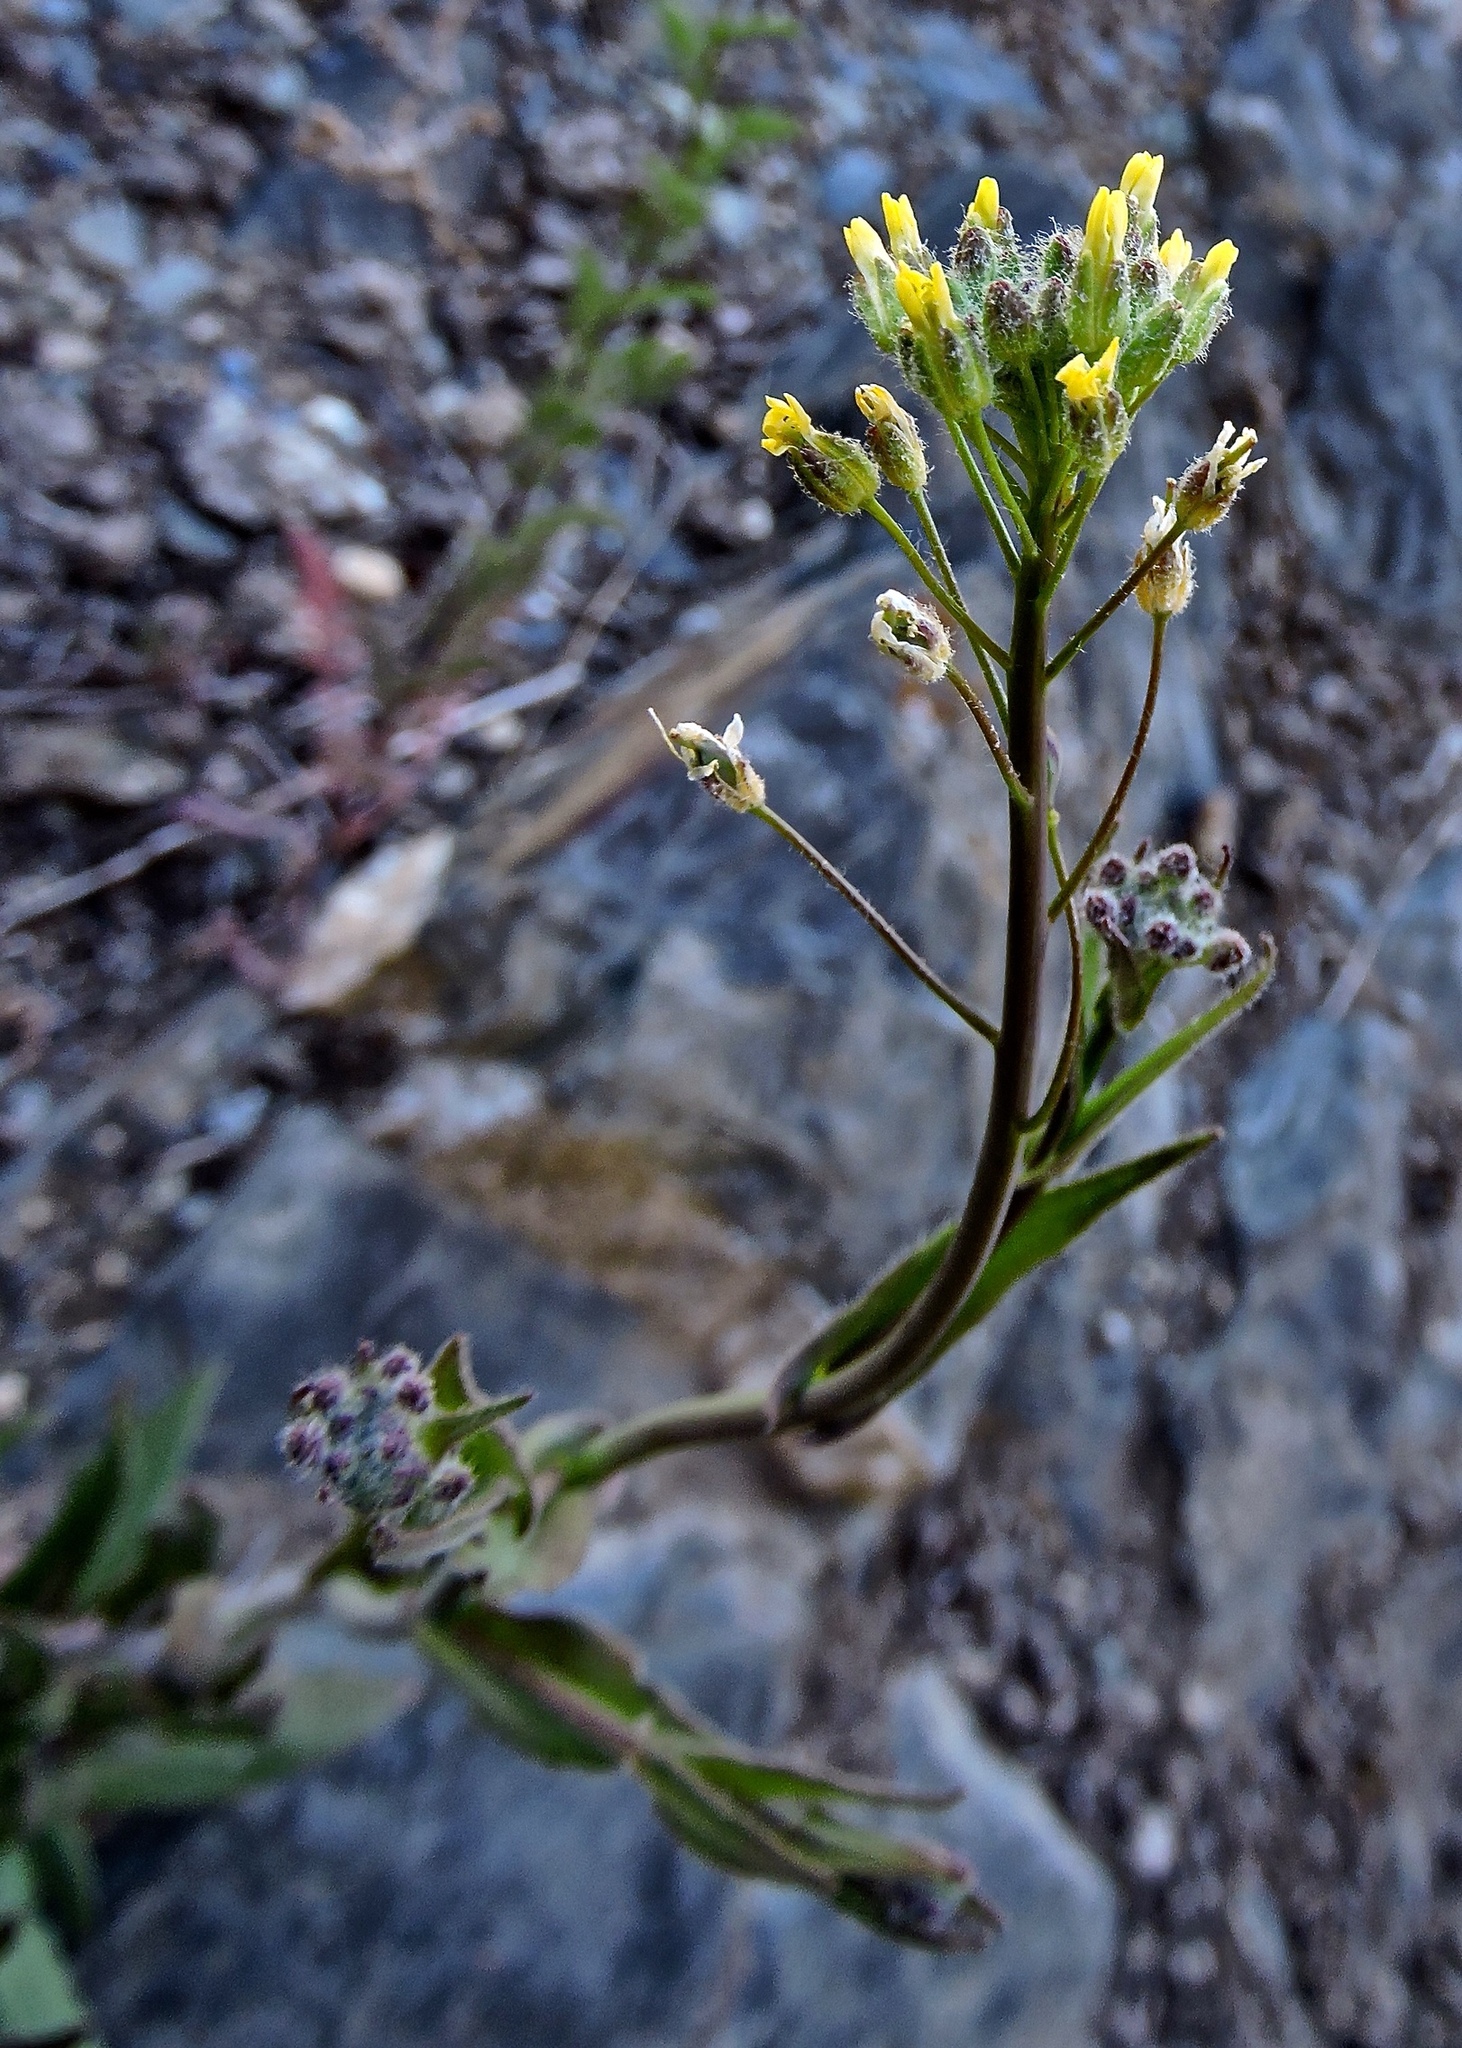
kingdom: Plantae
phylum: Tracheophyta
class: Magnoliopsida
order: Brassicales
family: Brassicaceae
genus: Camelina
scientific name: Camelina microcarpa
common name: Lesser gold-of-pleasure
